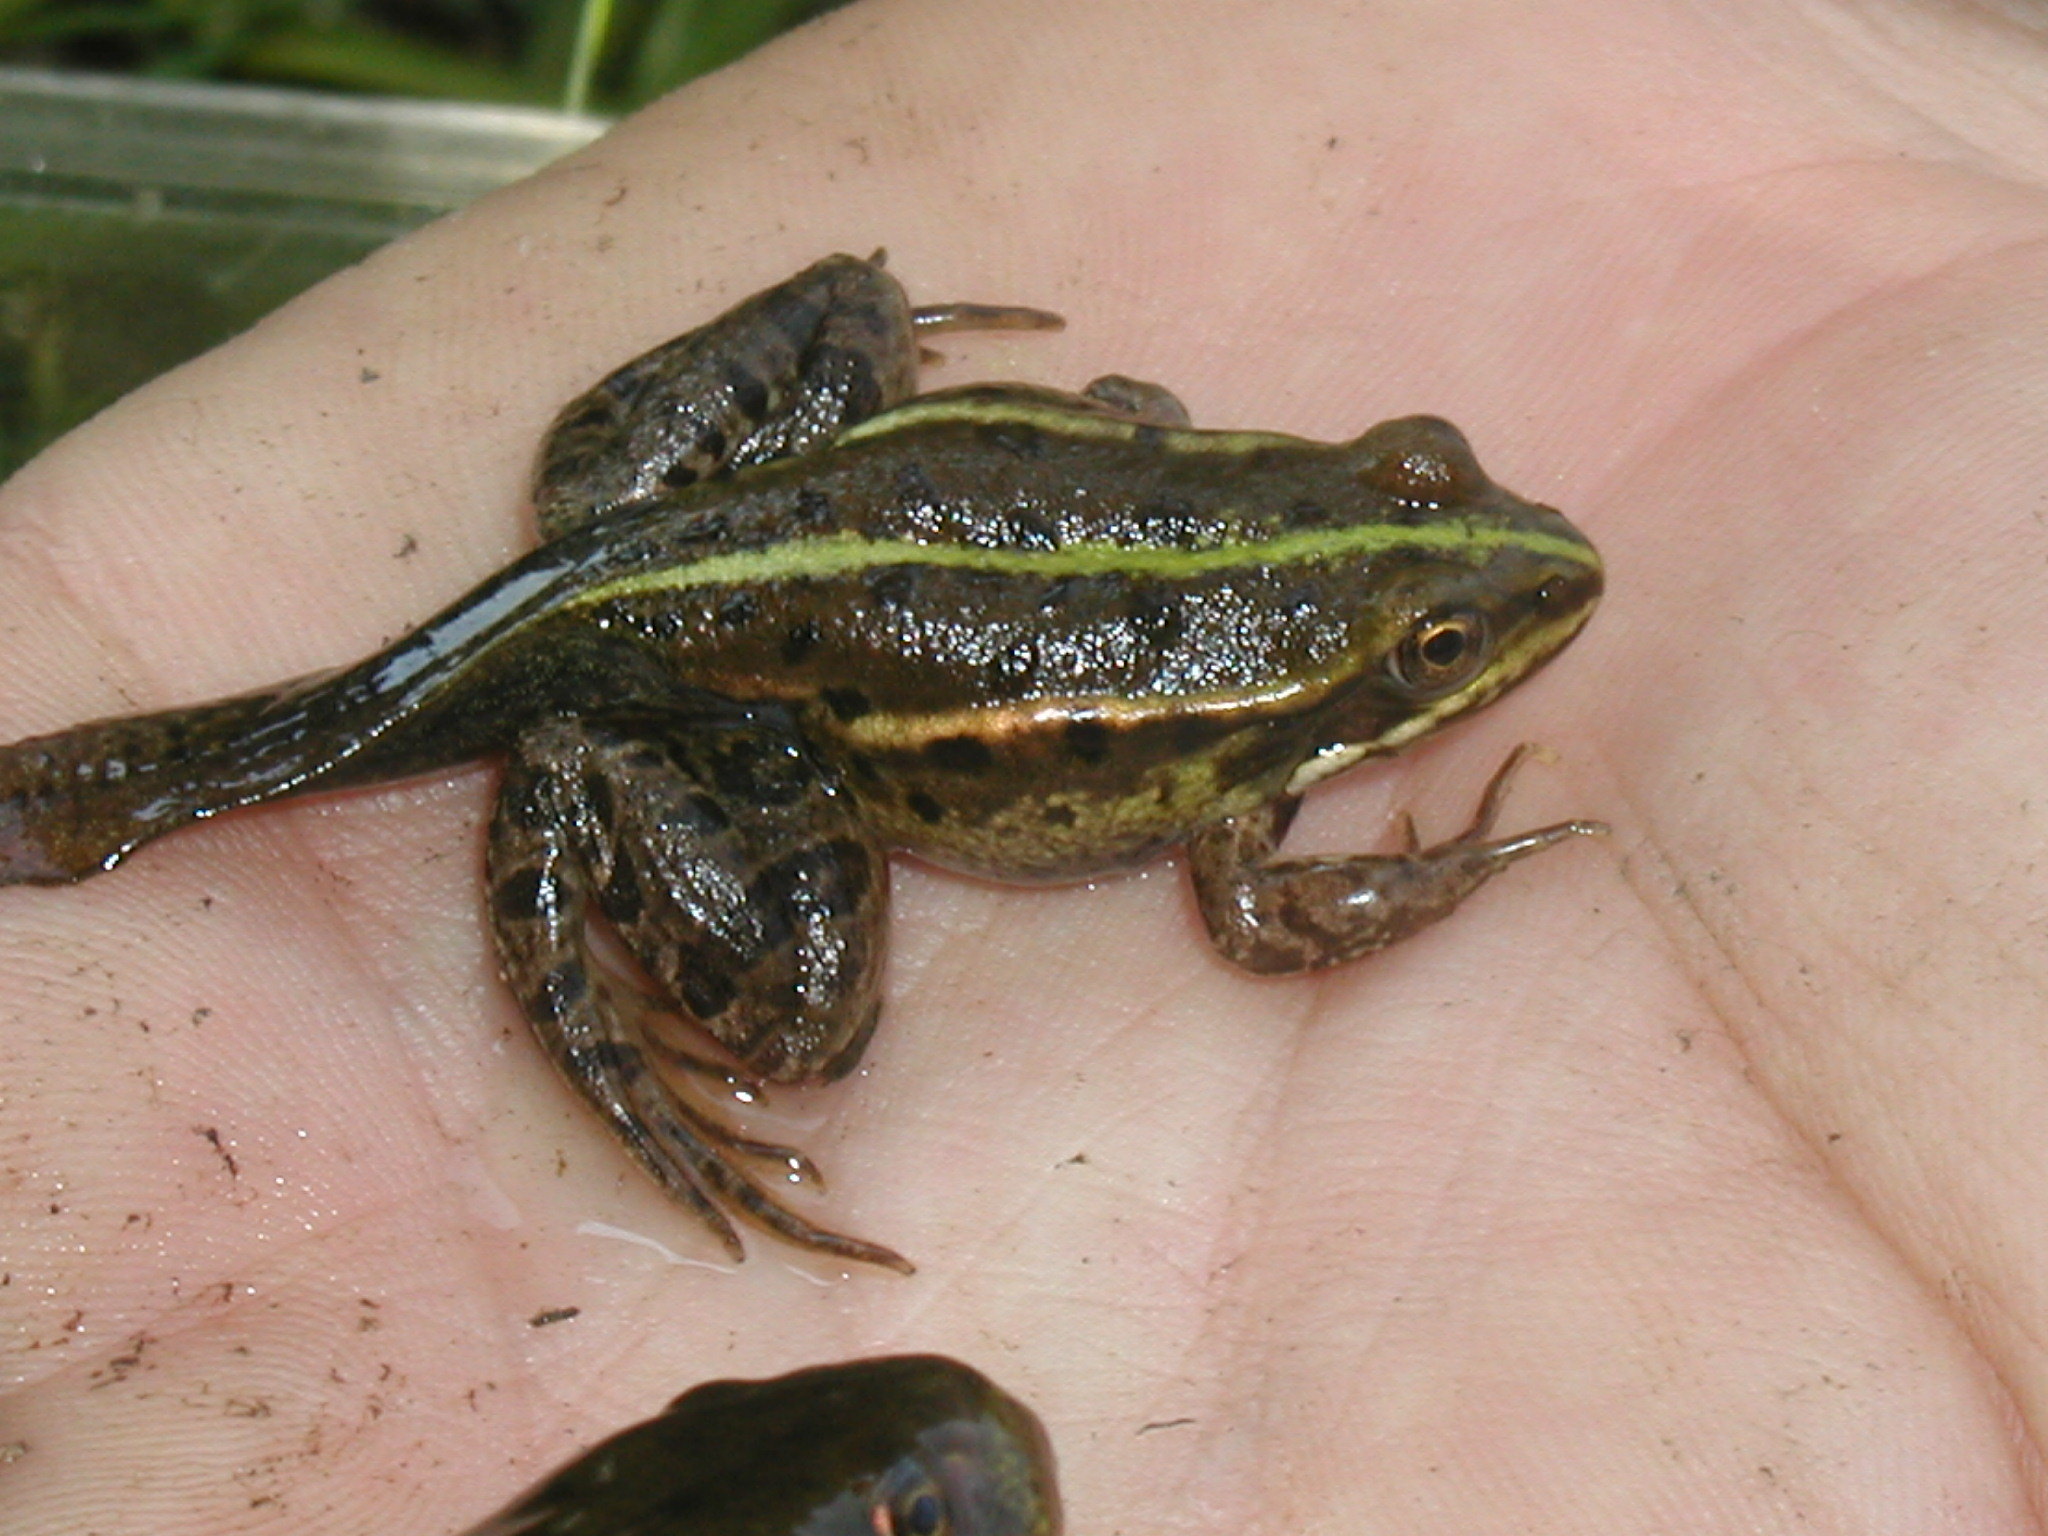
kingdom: Animalia
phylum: Chordata
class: Amphibia
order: Anura
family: Ranidae
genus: Pelophylax
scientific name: Pelophylax
